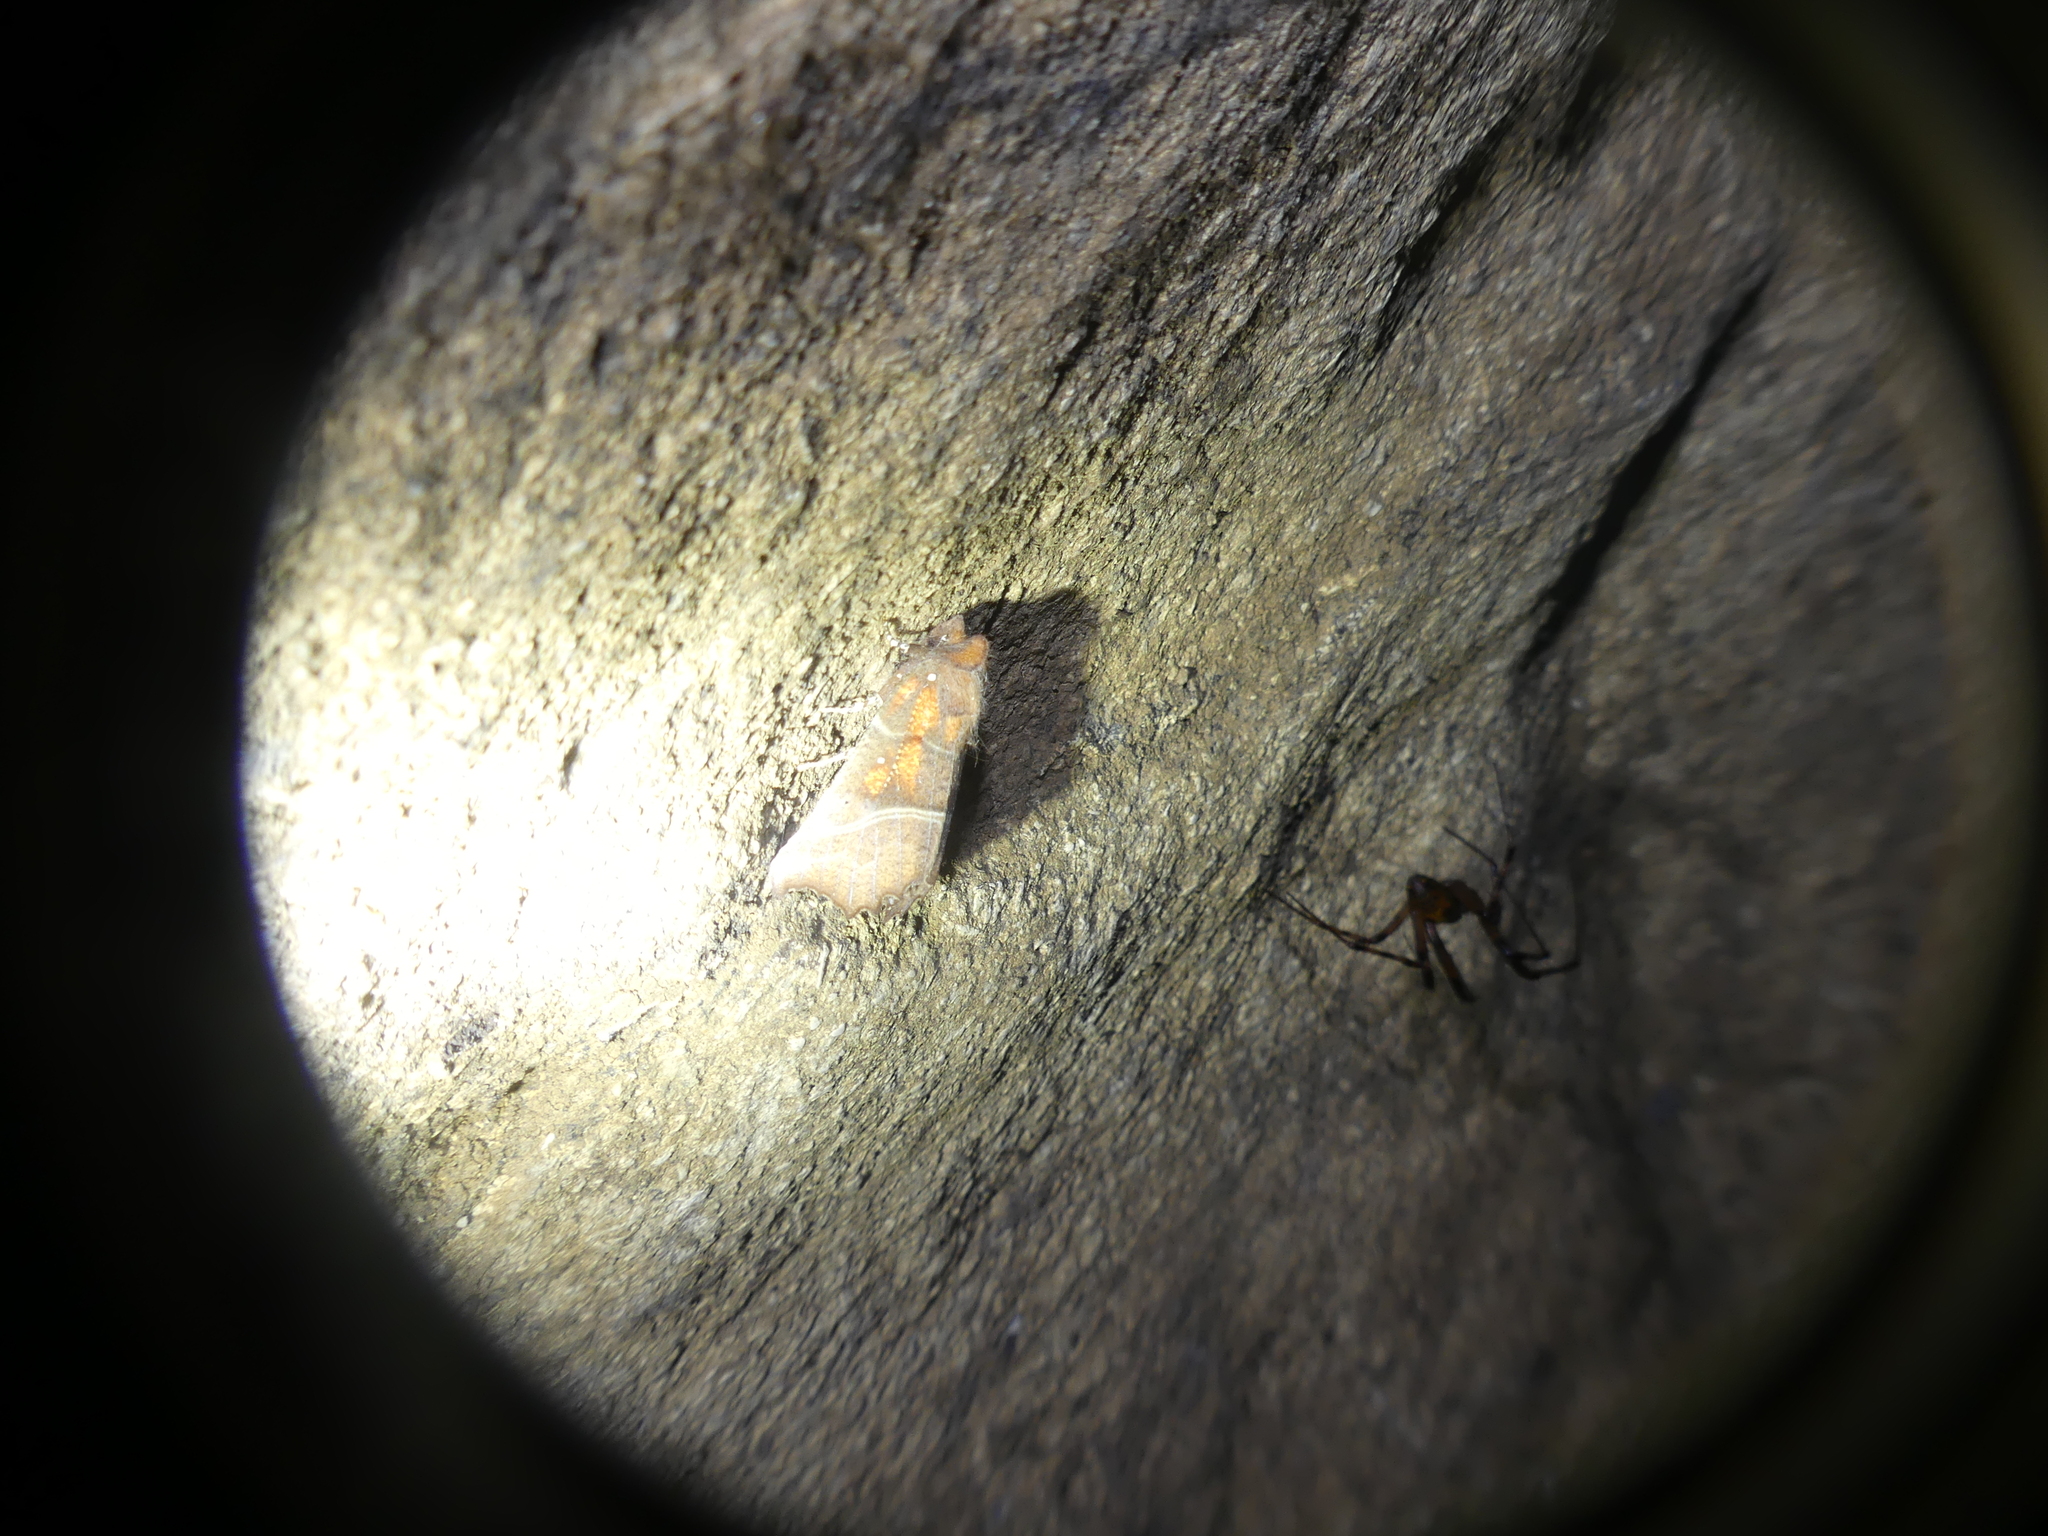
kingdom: Animalia
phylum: Arthropoda
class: Insecta
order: Lepidoptera
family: Erebidae
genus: Scoliopteryx
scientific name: Scoliopteryx libatrix
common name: Herald
